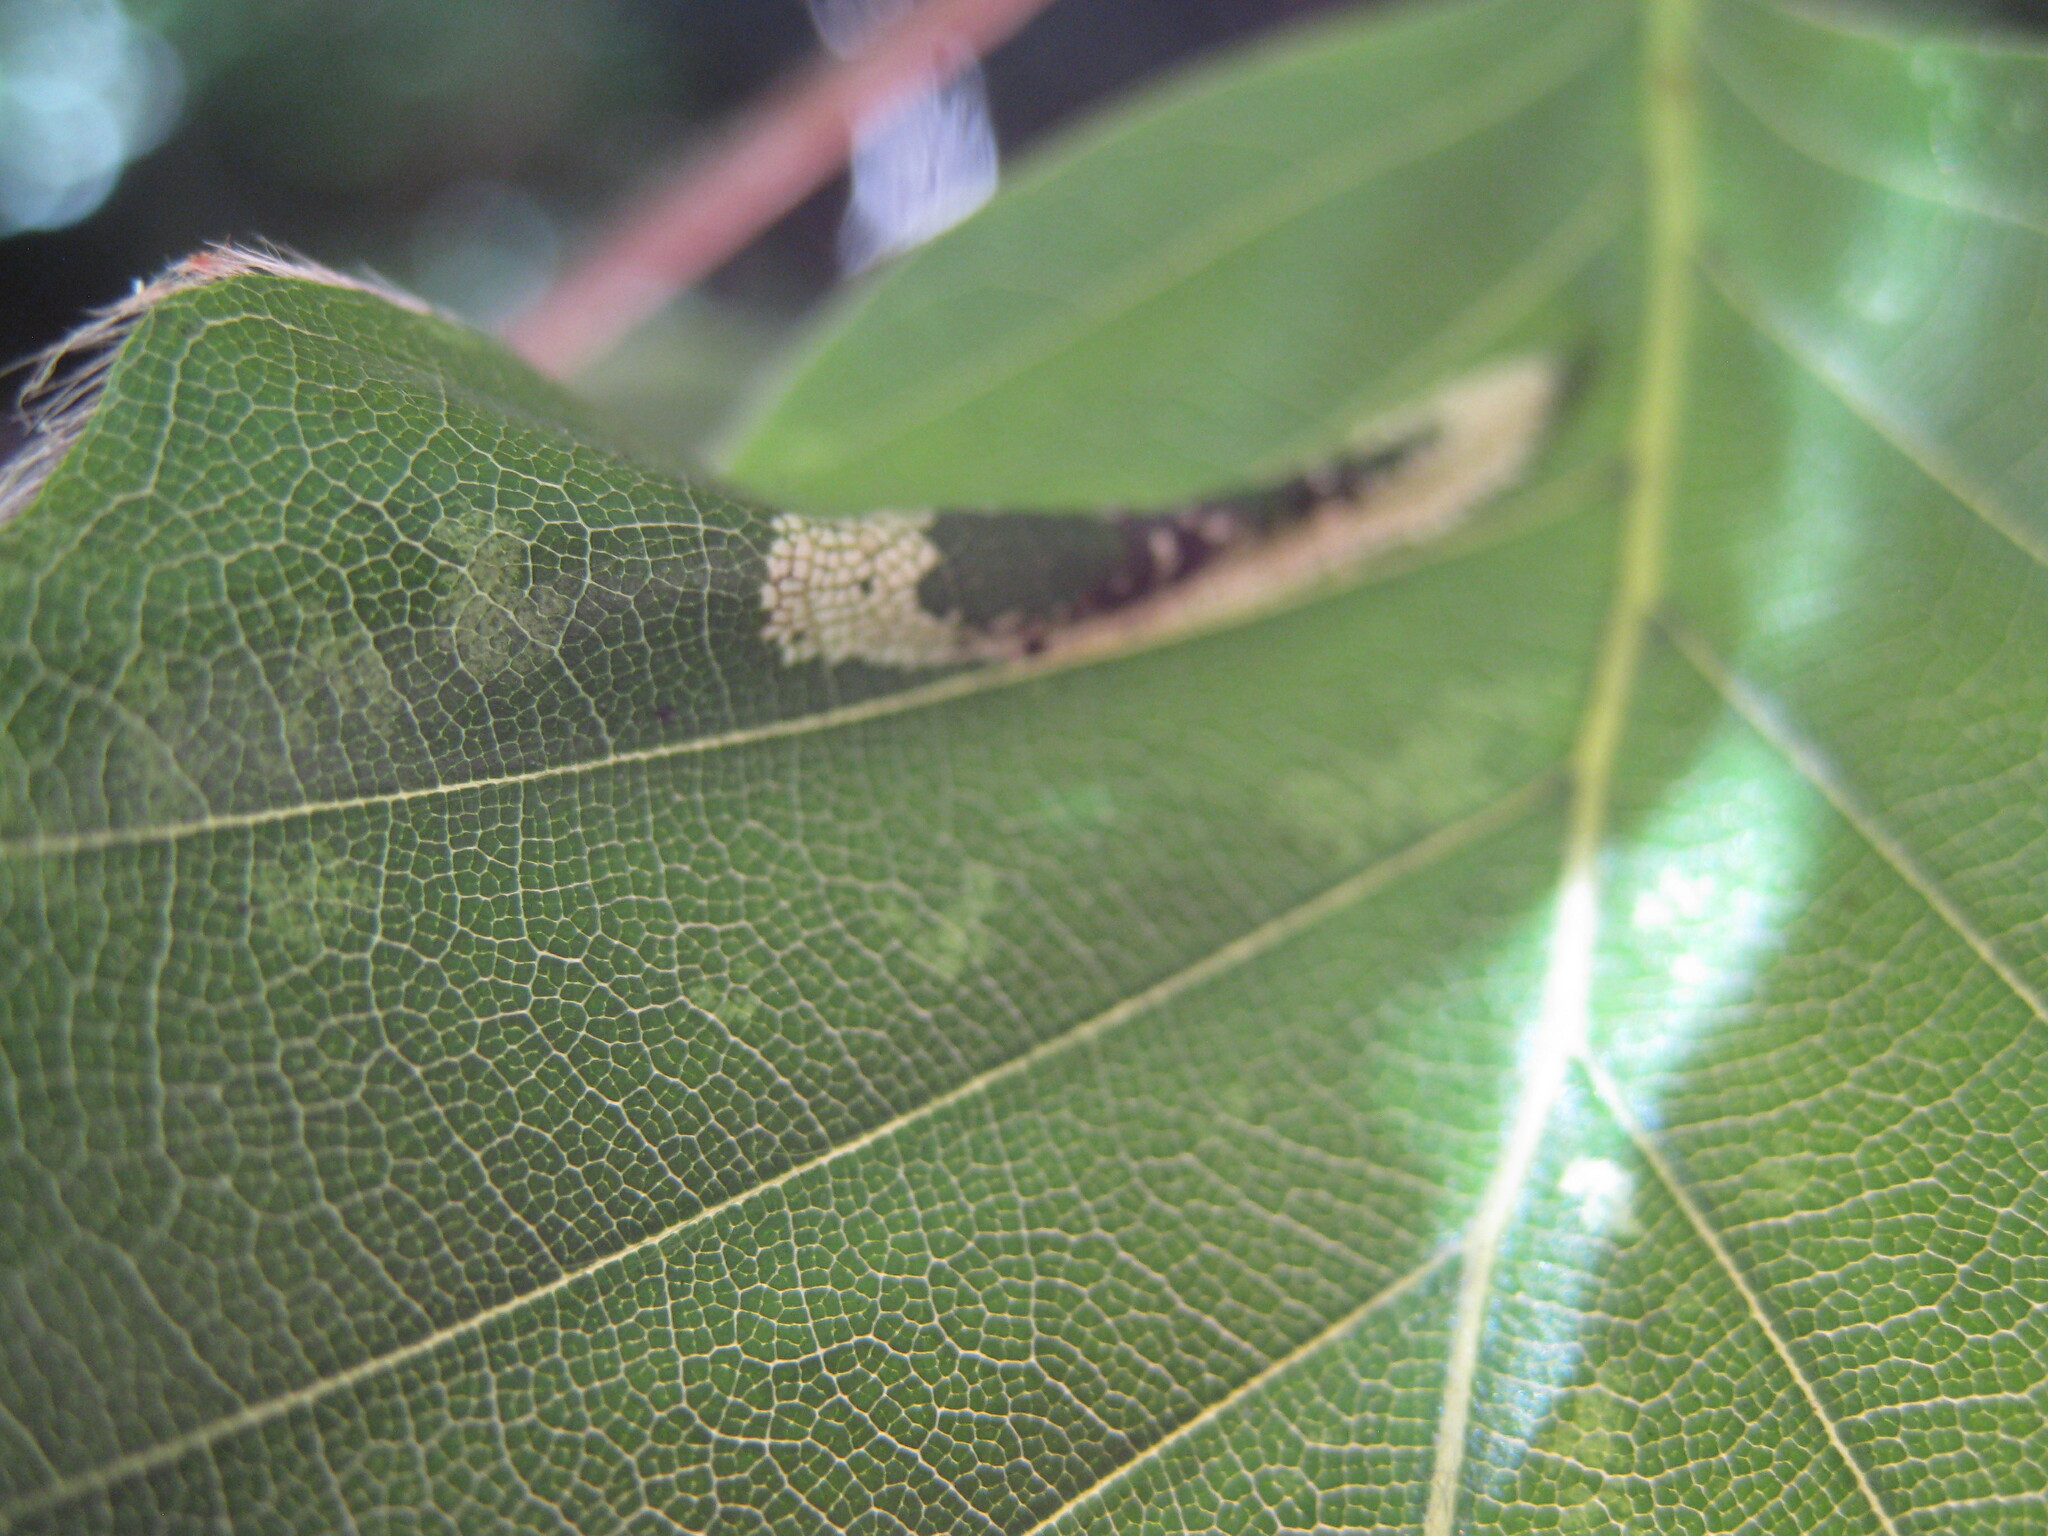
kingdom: Animalia
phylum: Arthropoda
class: Insecta
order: Lepidoptera
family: Gracillariidae
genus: Phyllonorycter
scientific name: Phyllonorycter maestingella
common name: Beech midget
